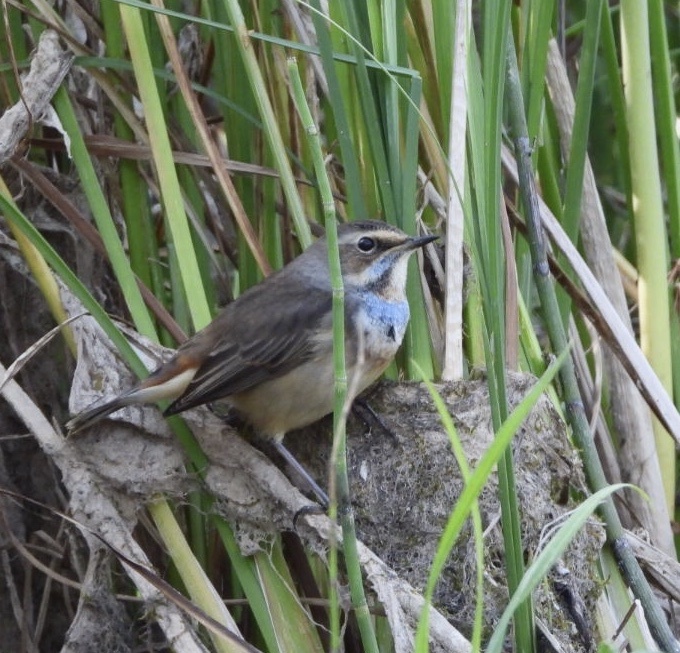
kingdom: Animalia
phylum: Chordata
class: Aves
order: Passeriformes
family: Muscicapidae
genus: Luscinia
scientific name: Luscinia svecica
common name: Bluethroat
